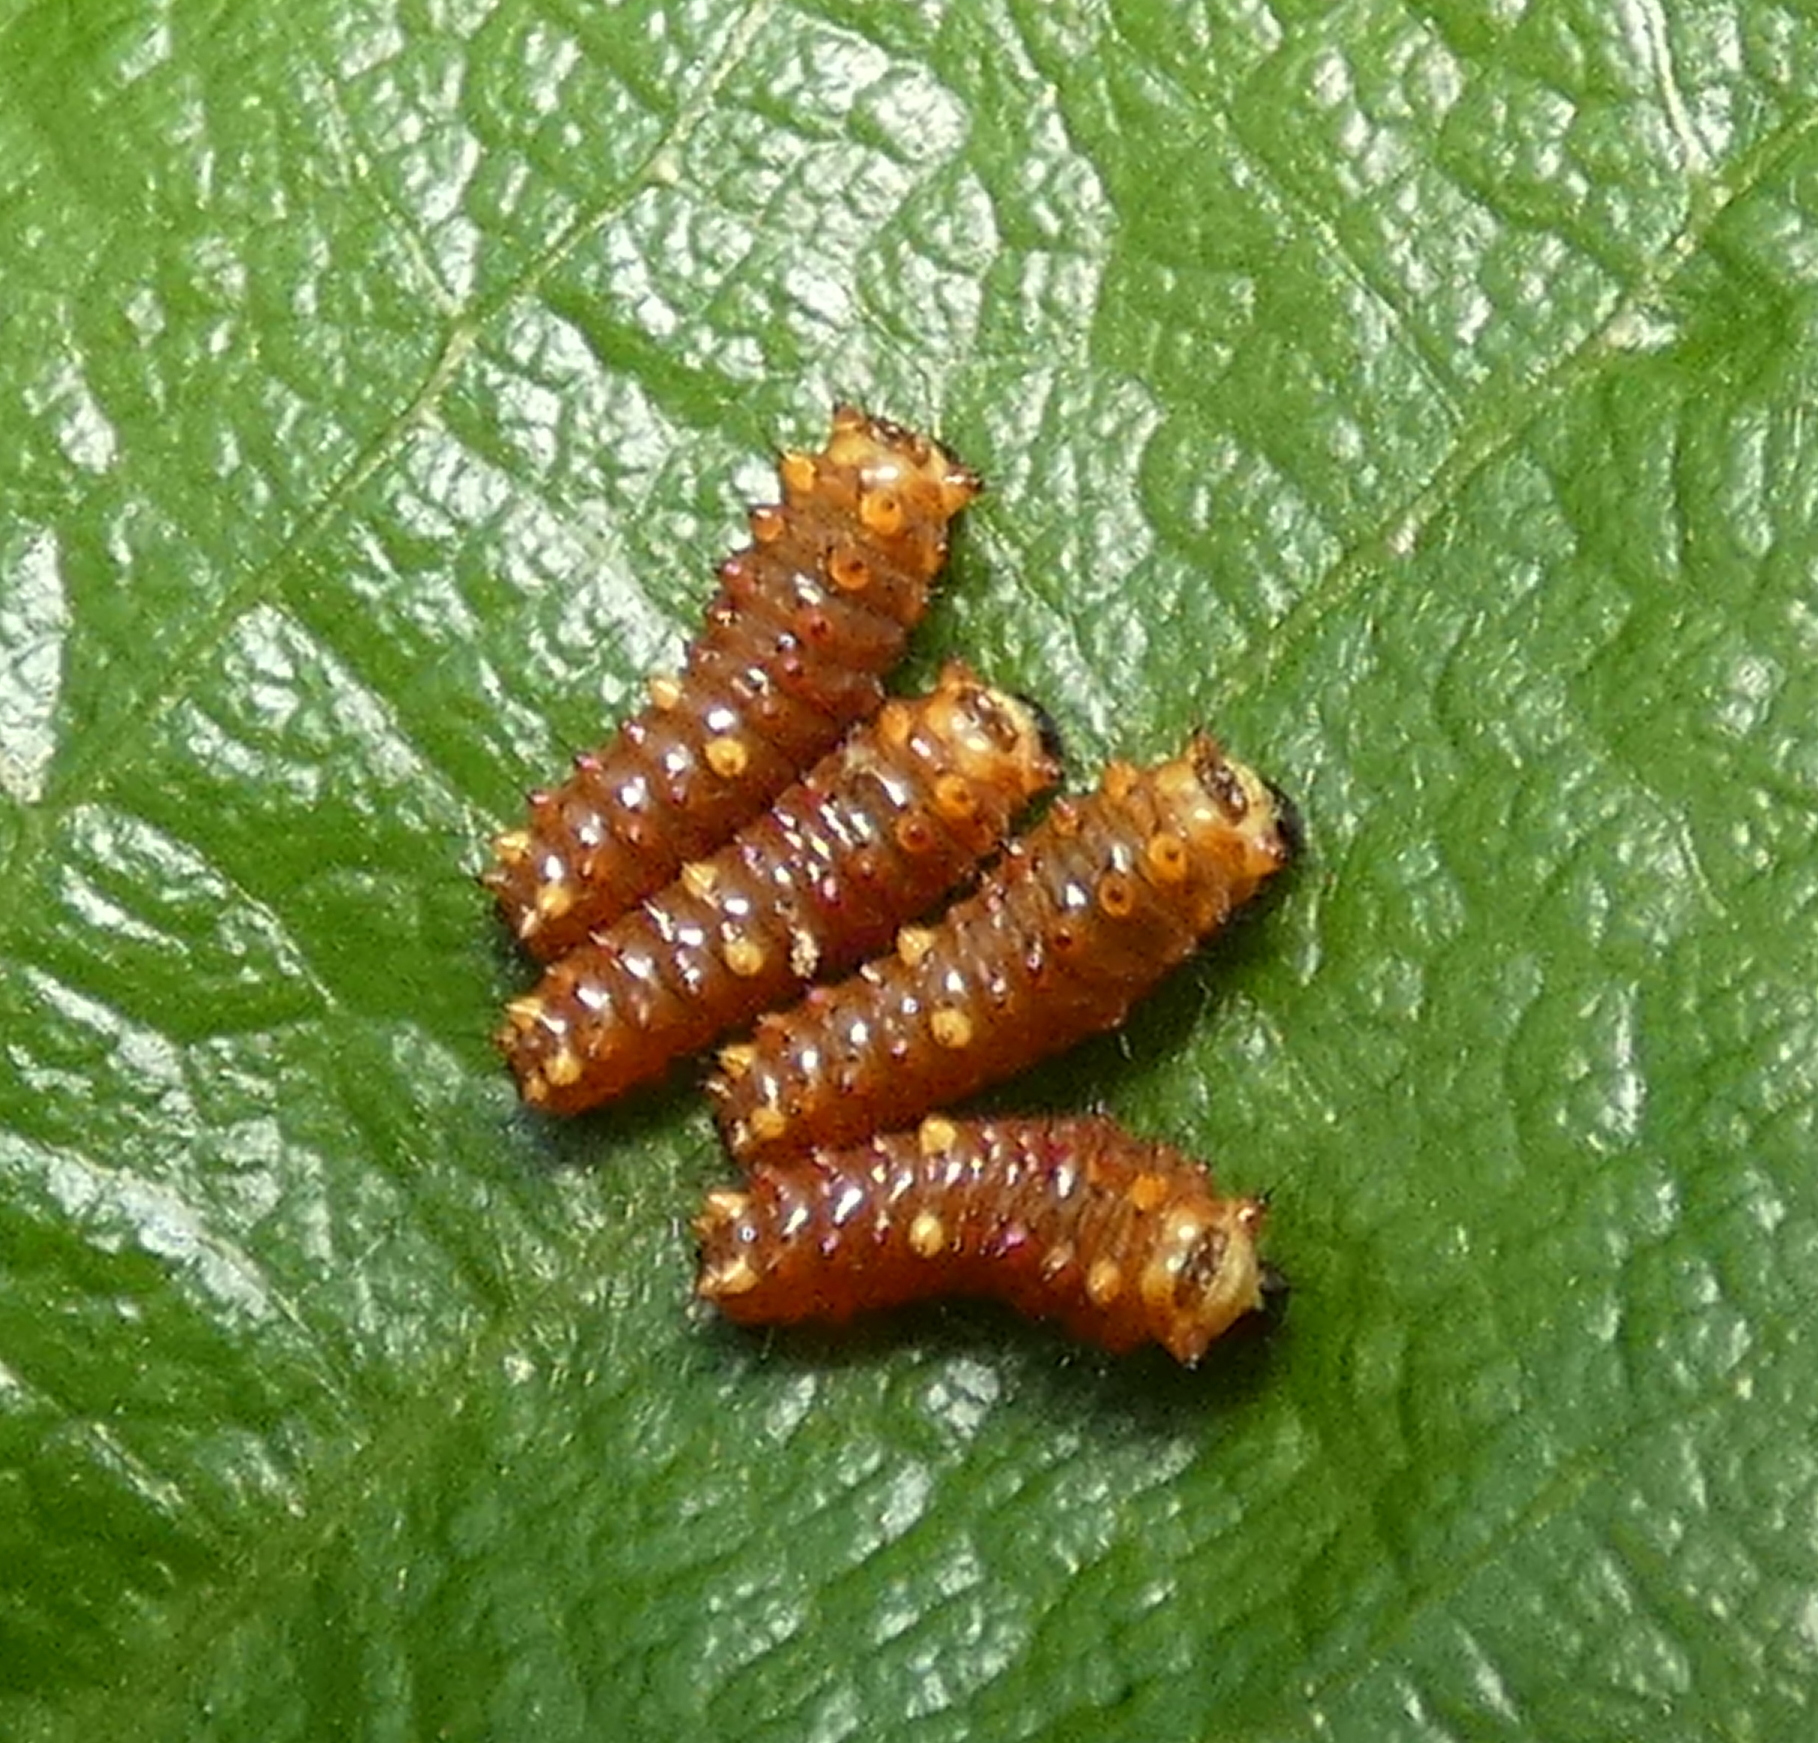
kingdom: Animalia
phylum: Arthropoda
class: Insecta
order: Lepidoptera
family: Papilionidae
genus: Battus
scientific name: Battus polydamas
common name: Polydamas swallowtail
